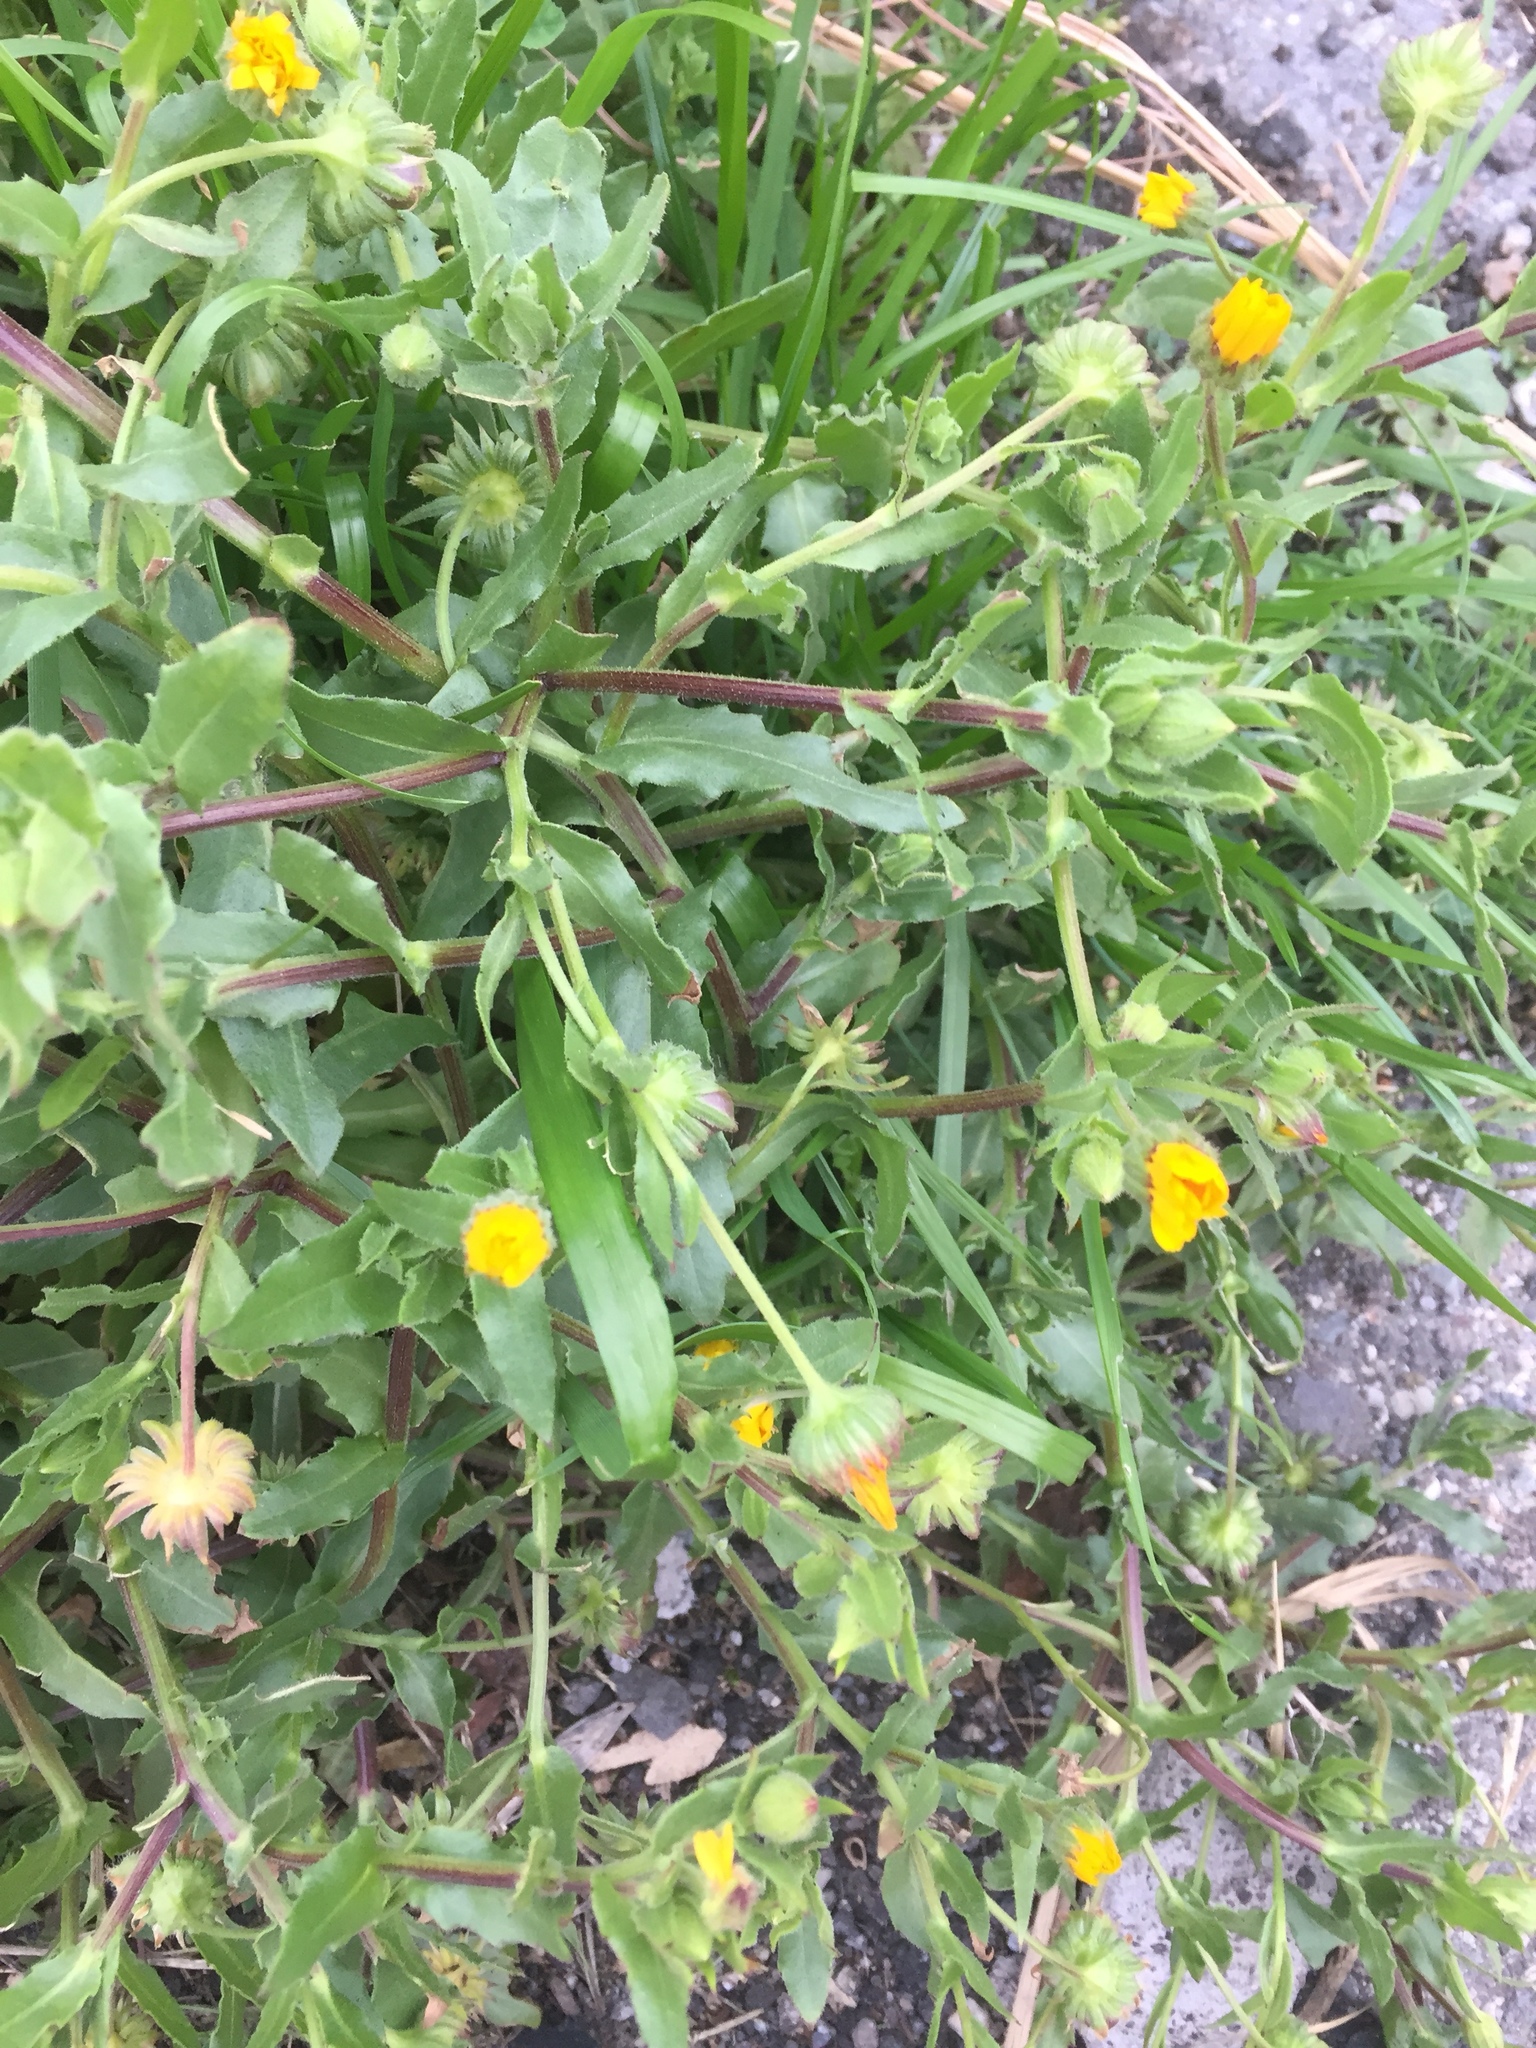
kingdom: Plantae
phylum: Tracheophyta
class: Magnoliopsida
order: Asterales
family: Asteraceae
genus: Calendula
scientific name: Calendula arvensis
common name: Field marigold
